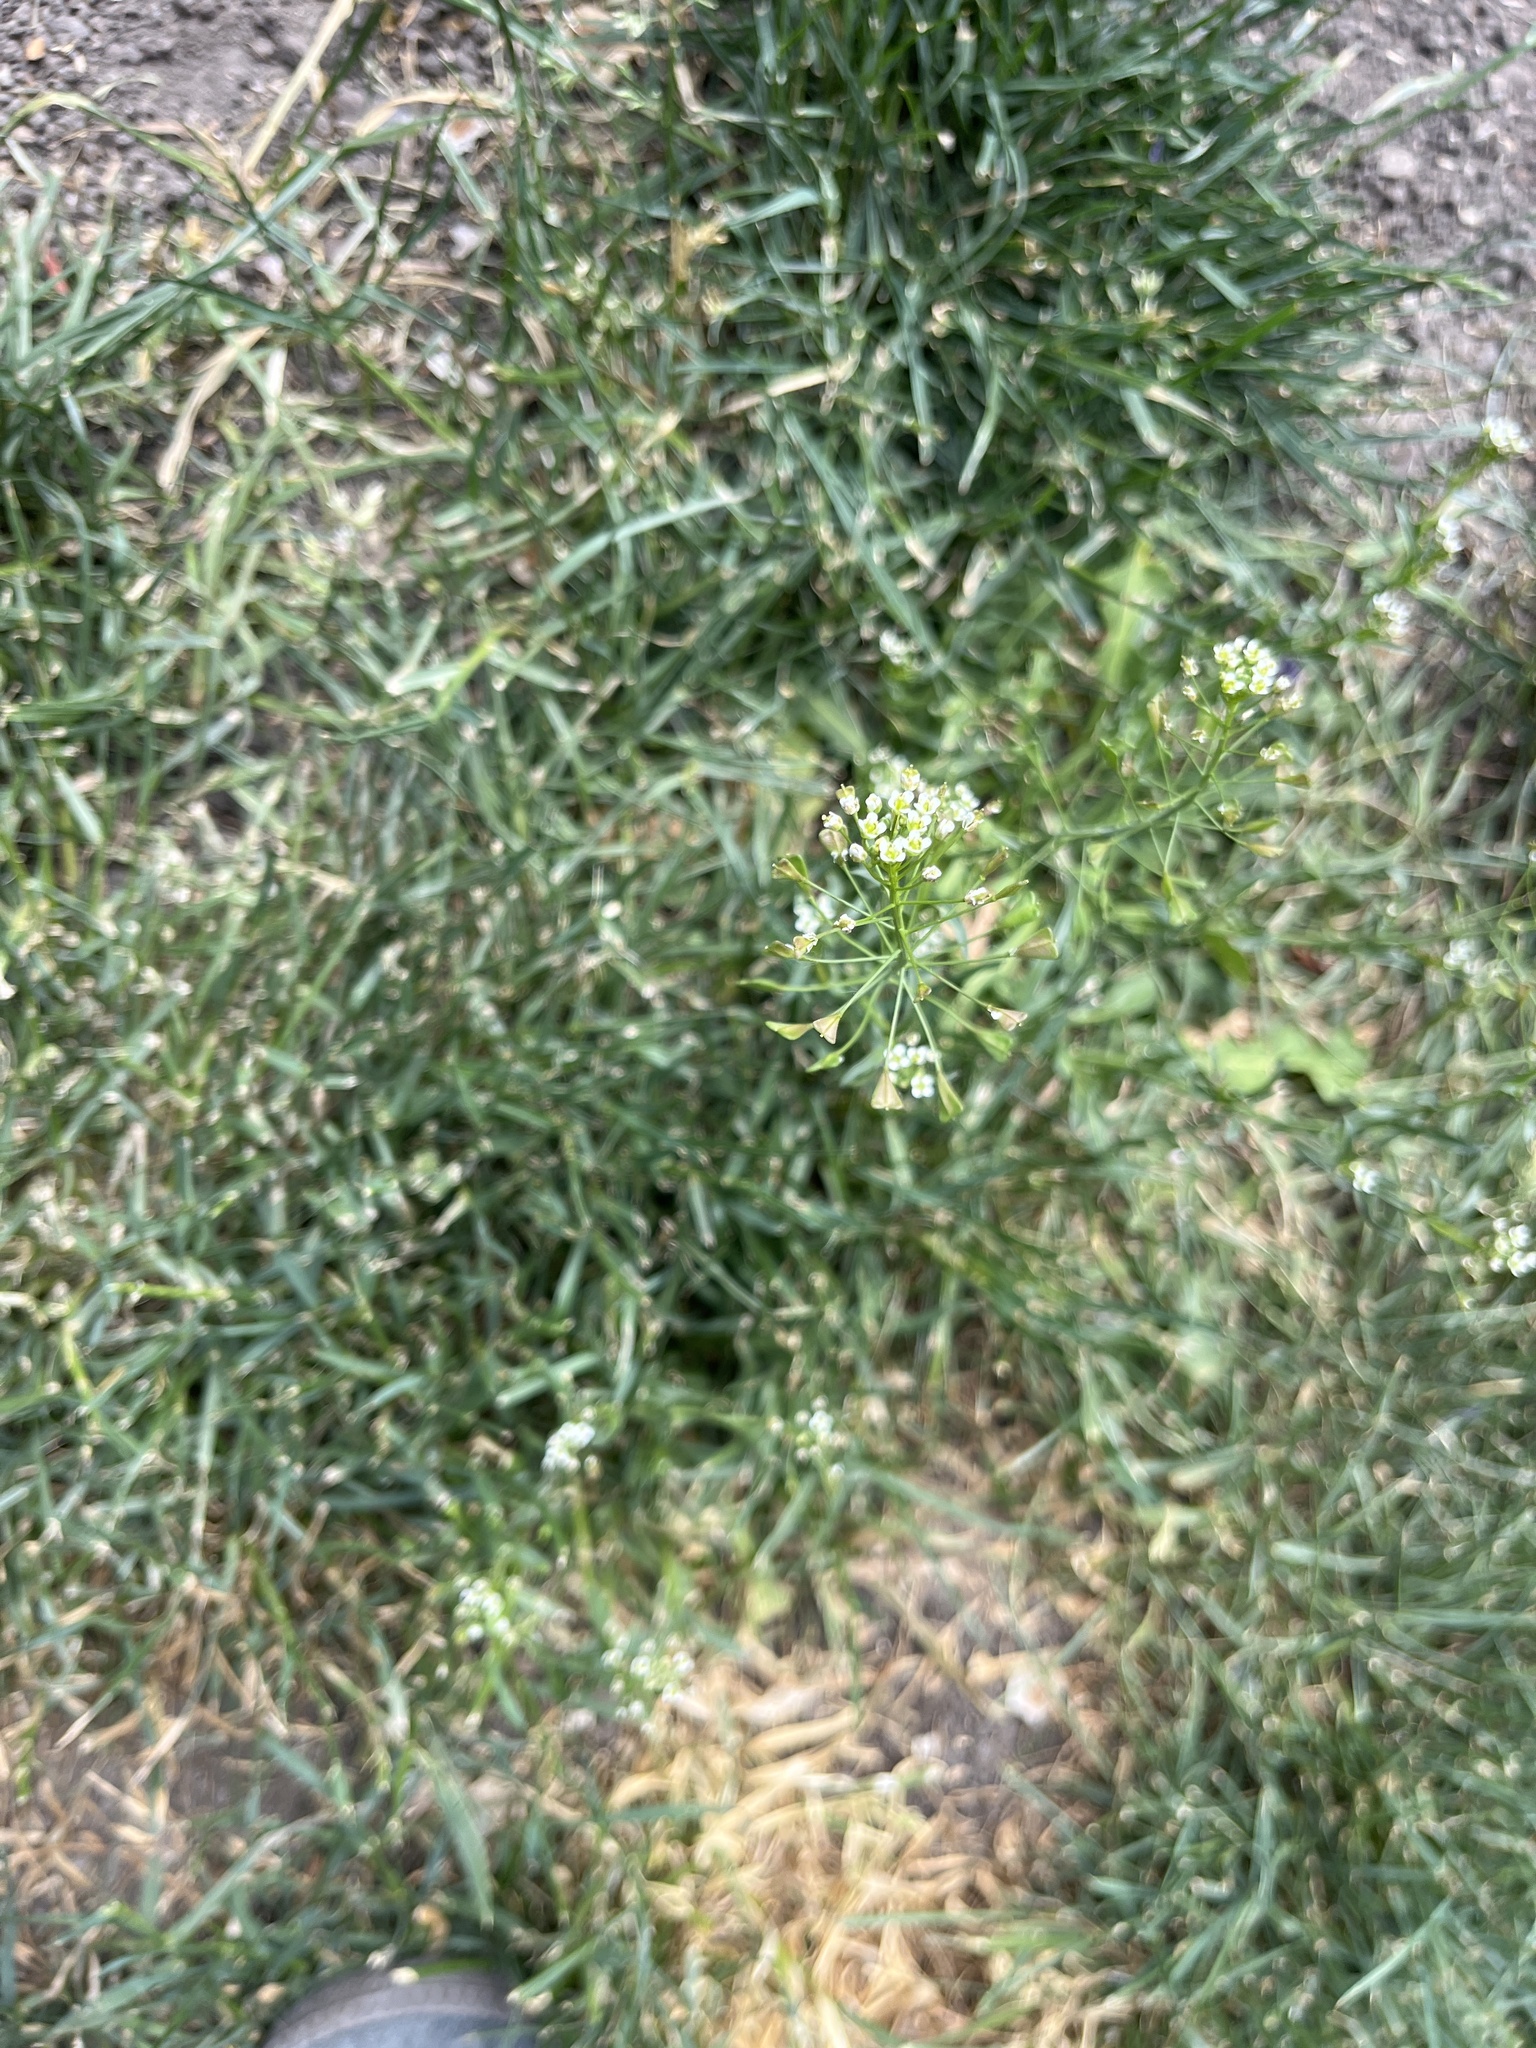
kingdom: Plantae
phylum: Tracheophyta
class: Magnoliopsida
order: Brassicales
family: Brassicaceae
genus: Capsella
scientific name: Capsella bursa-pastoris
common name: Shepherd's purse
